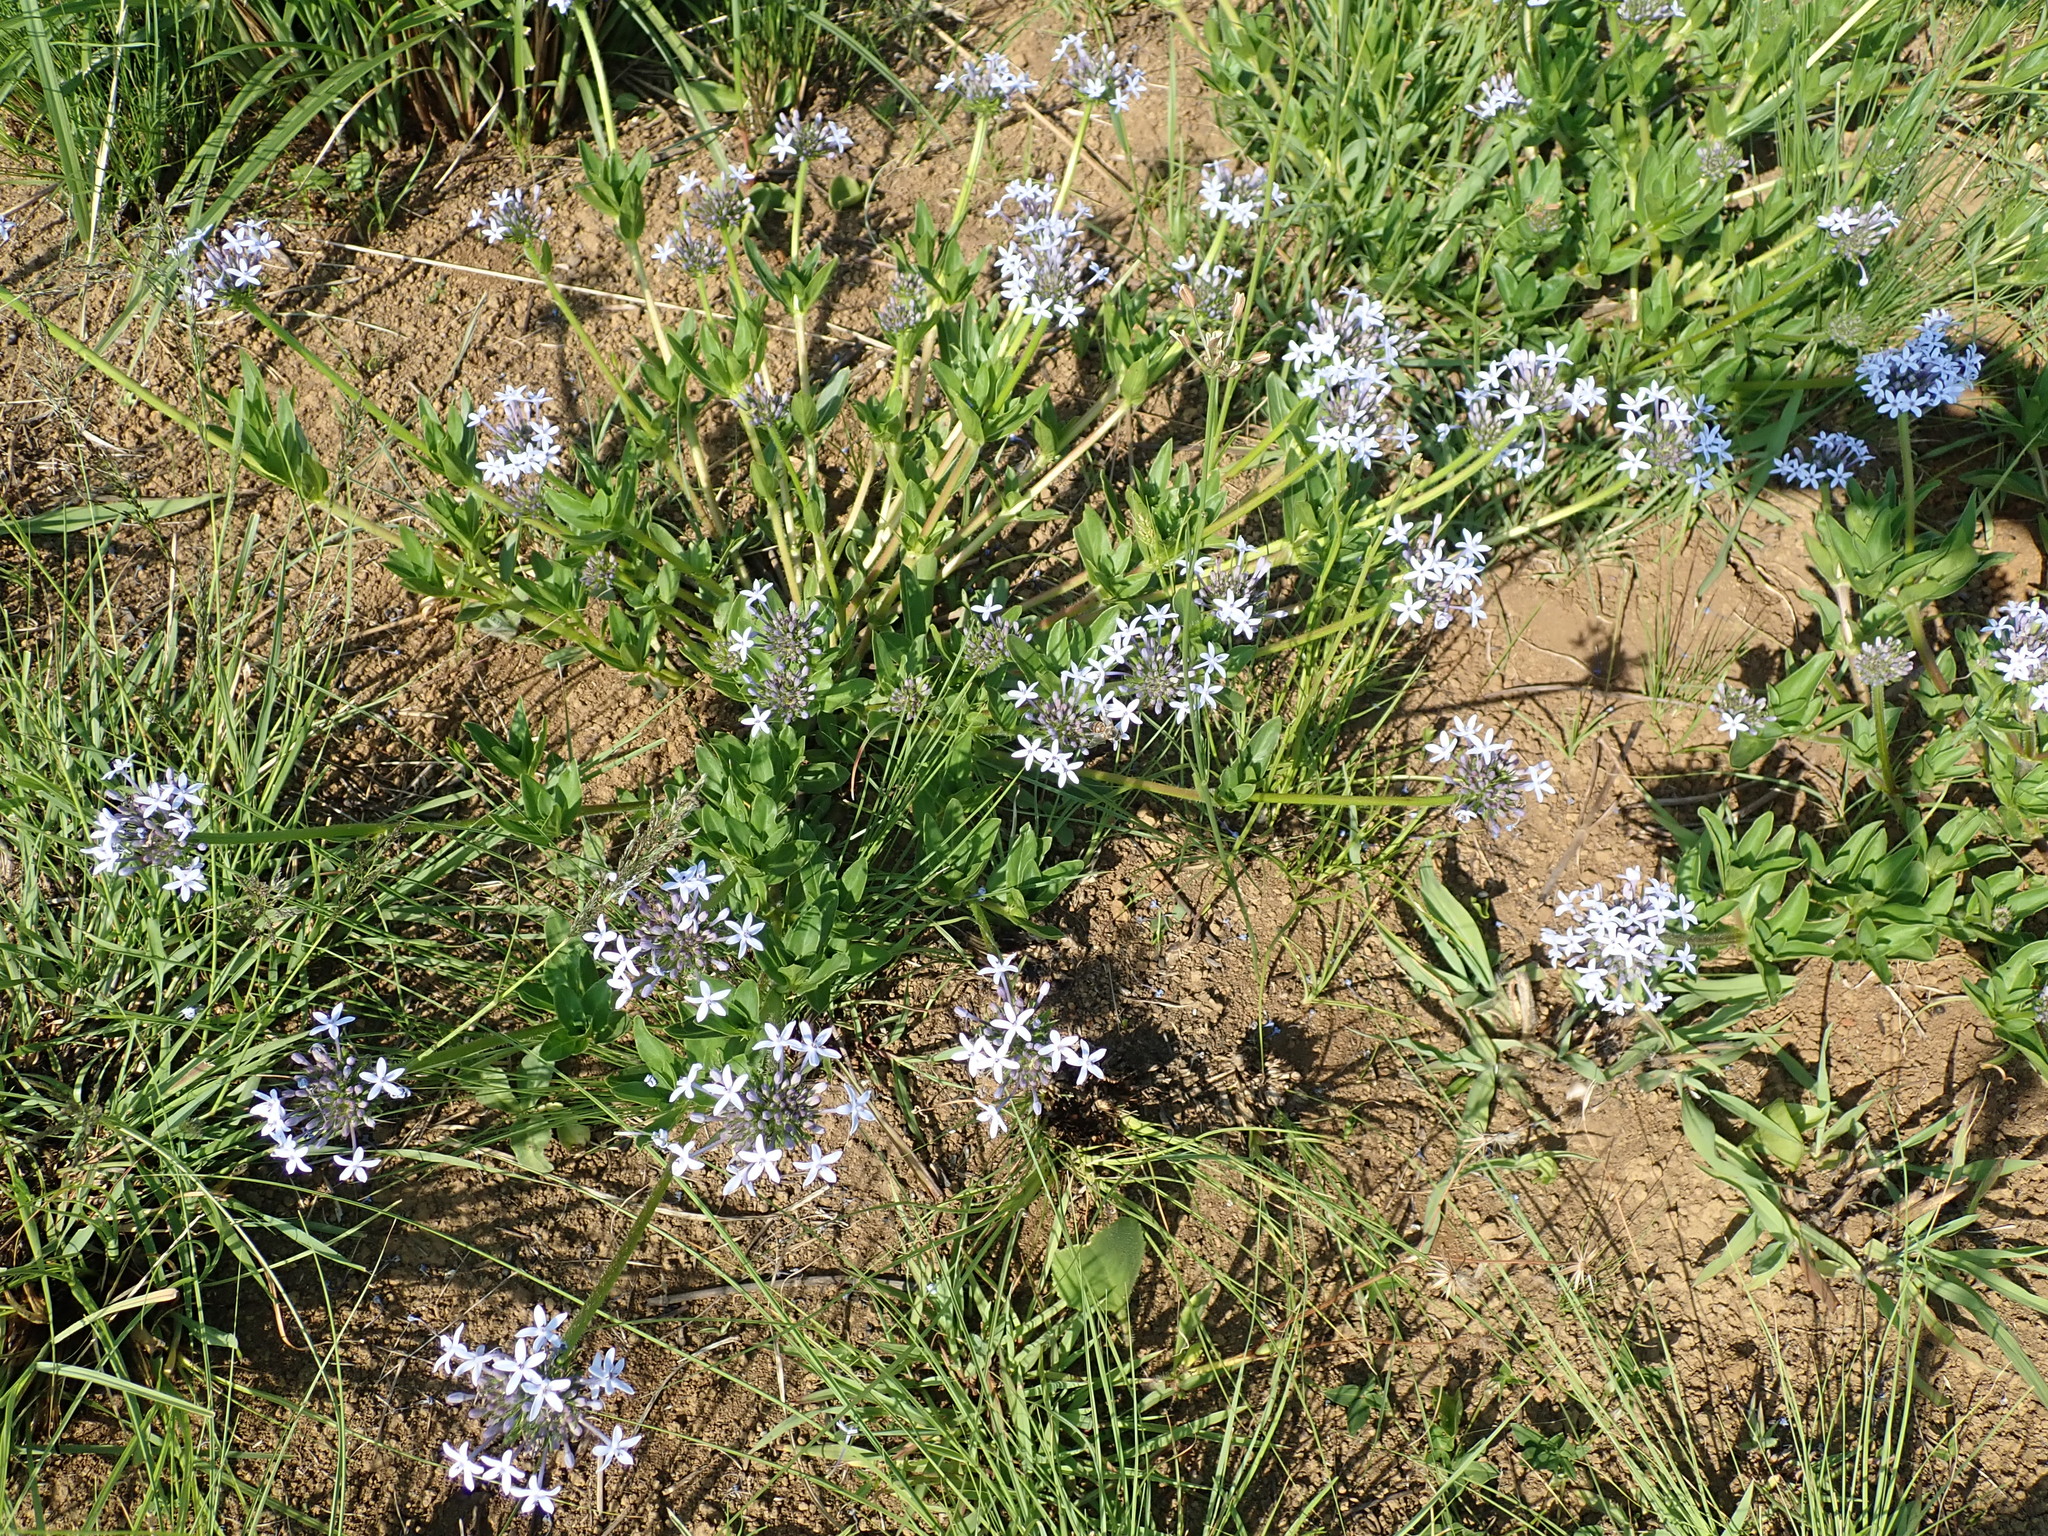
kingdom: Plantae
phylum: Tracheophyta
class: Magnoliopsida
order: Gentianales
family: Rubiaceae
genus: Pentanisia
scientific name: Pentanisia prunelloides
